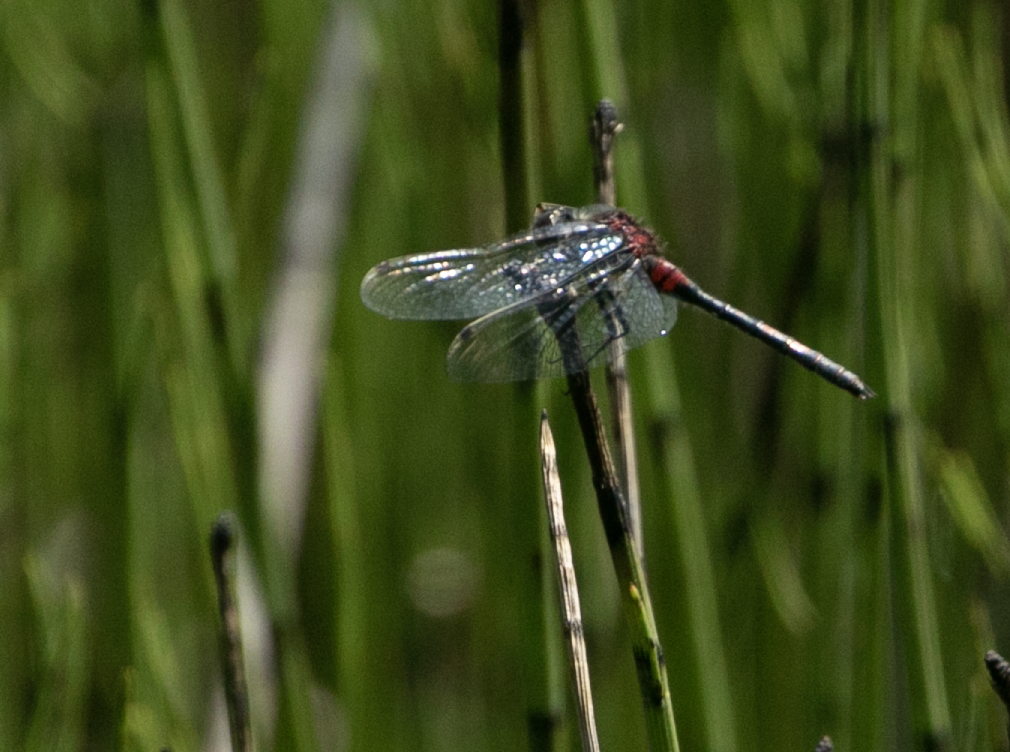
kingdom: Animalia
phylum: Arthropoda
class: Insecta
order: Odonata
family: Libellulidae
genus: Leucorrhinia
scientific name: Leucorrhinia dubia
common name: White-faced darter
